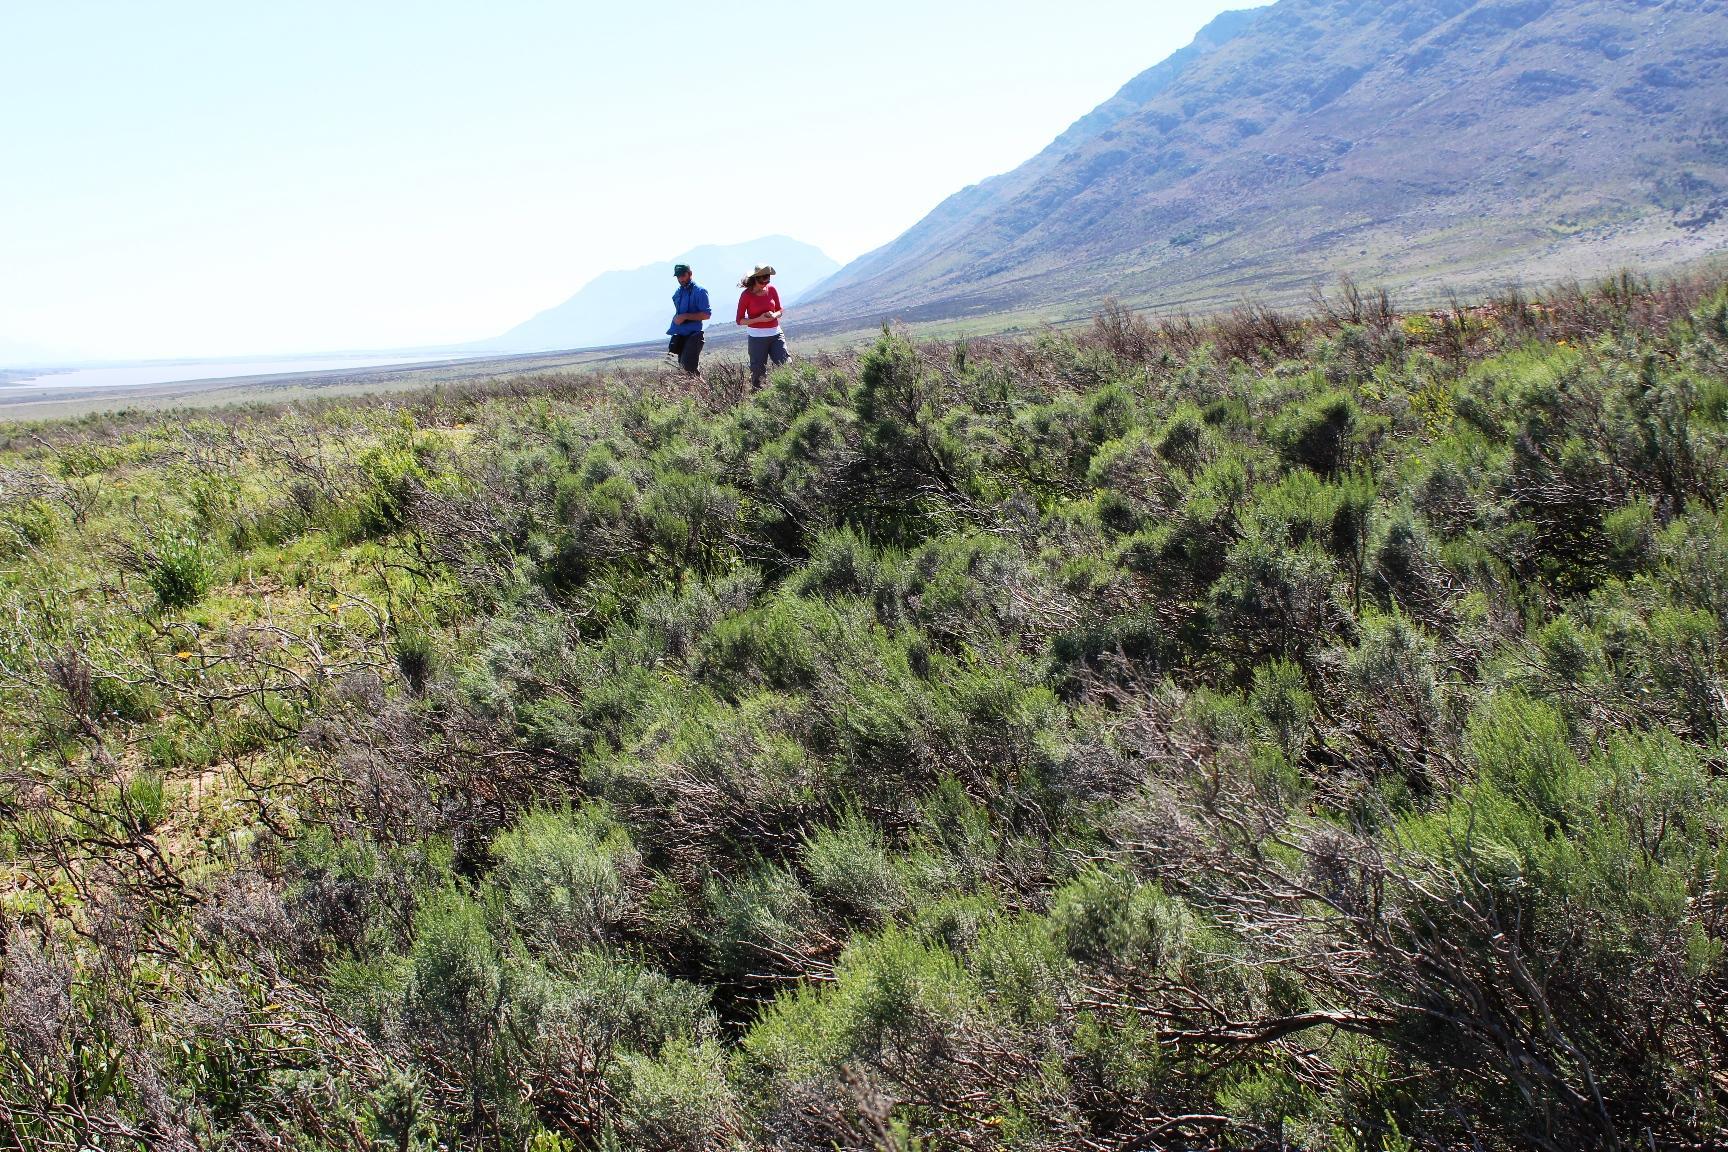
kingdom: Plantae
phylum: Tracheophyta
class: Magnoliopsida
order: Asterales
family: Asteraceae
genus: Dicerothamnus
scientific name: Dicerothamnus rhinocerotis
